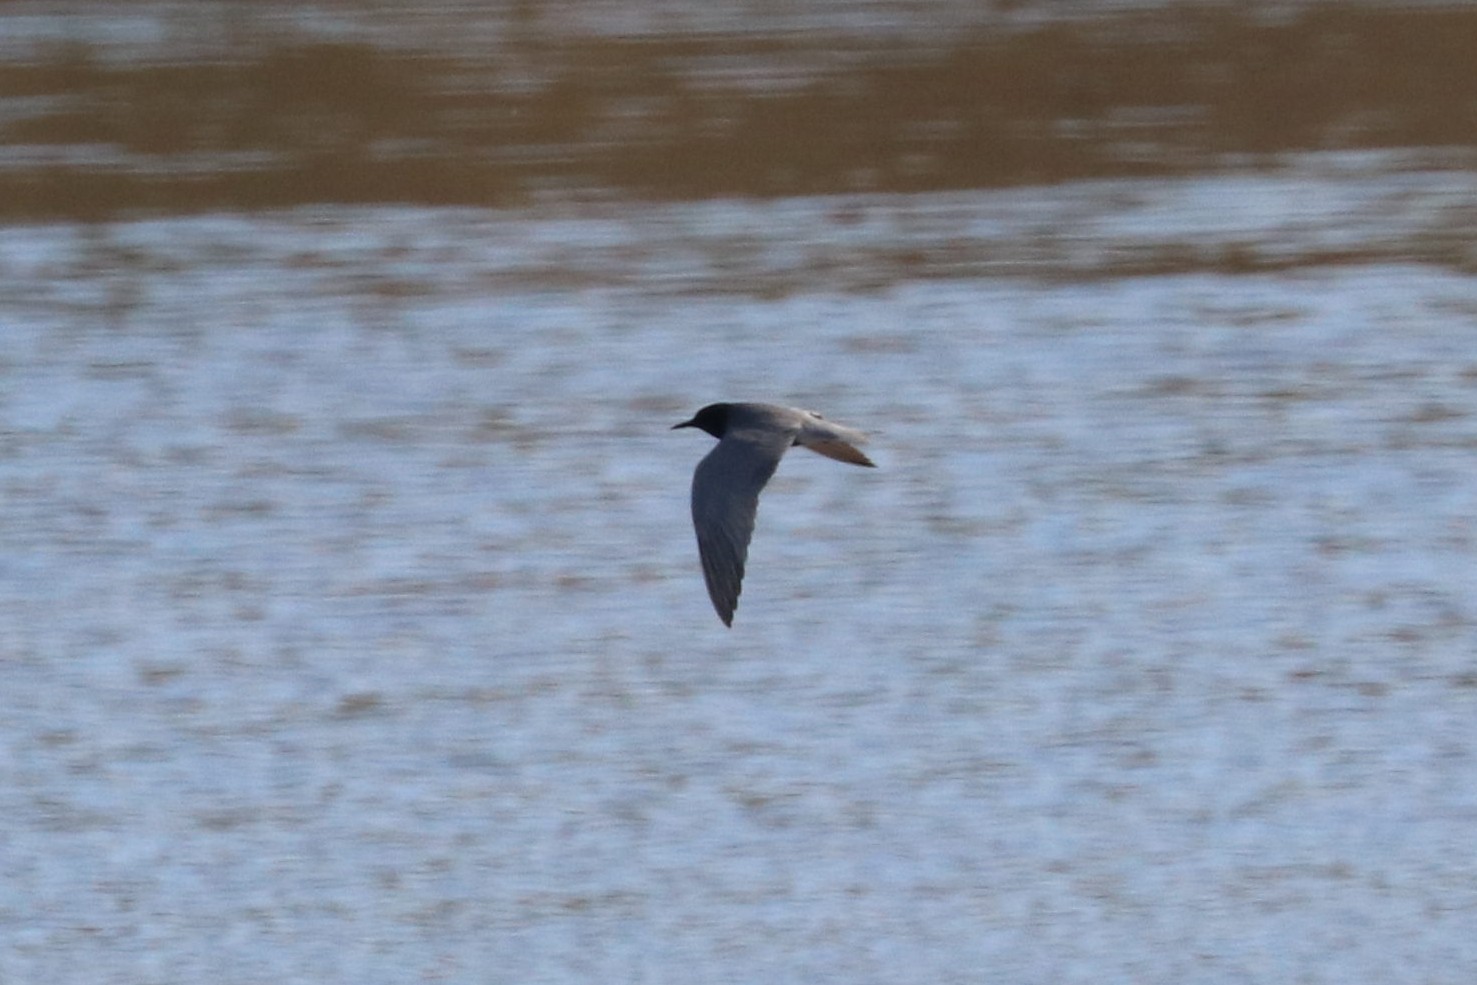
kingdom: Animalia
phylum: Chordata
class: Aves
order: Charadriiformes
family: Laridae
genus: Chlidonias
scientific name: Chlidonias niger
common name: Black tern
